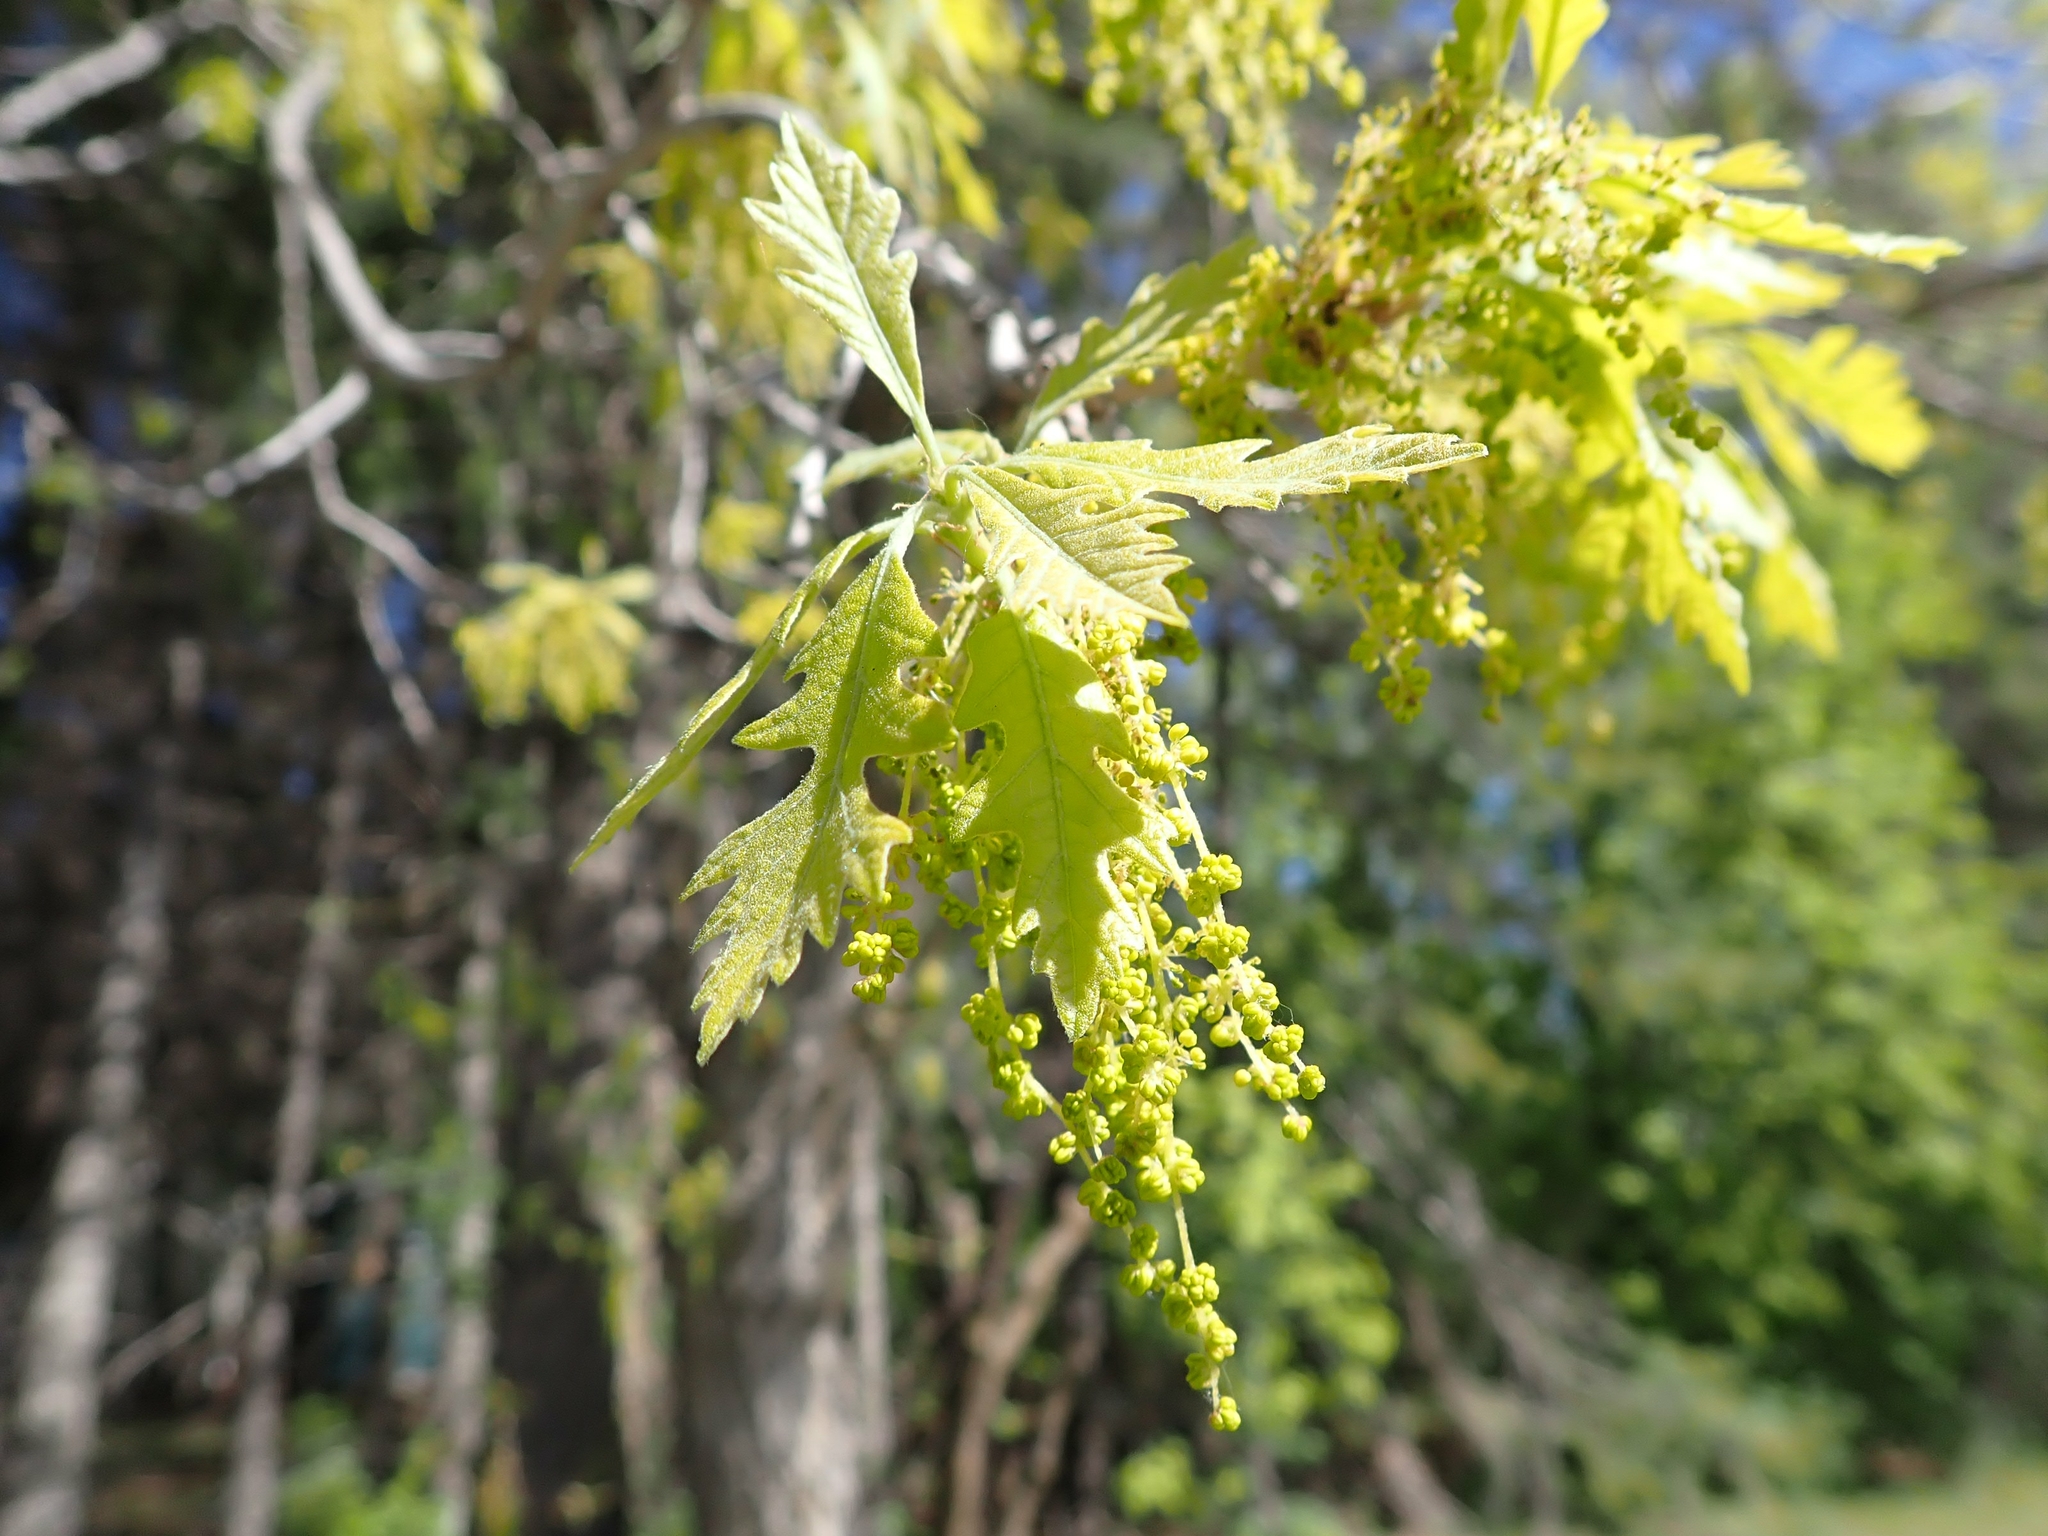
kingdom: Plantae
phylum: Tracheophyta
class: Magnoliopsida
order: Fagales
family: Fagaceae
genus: Quercus
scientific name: Quercus macrocarpa
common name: Bur oak
